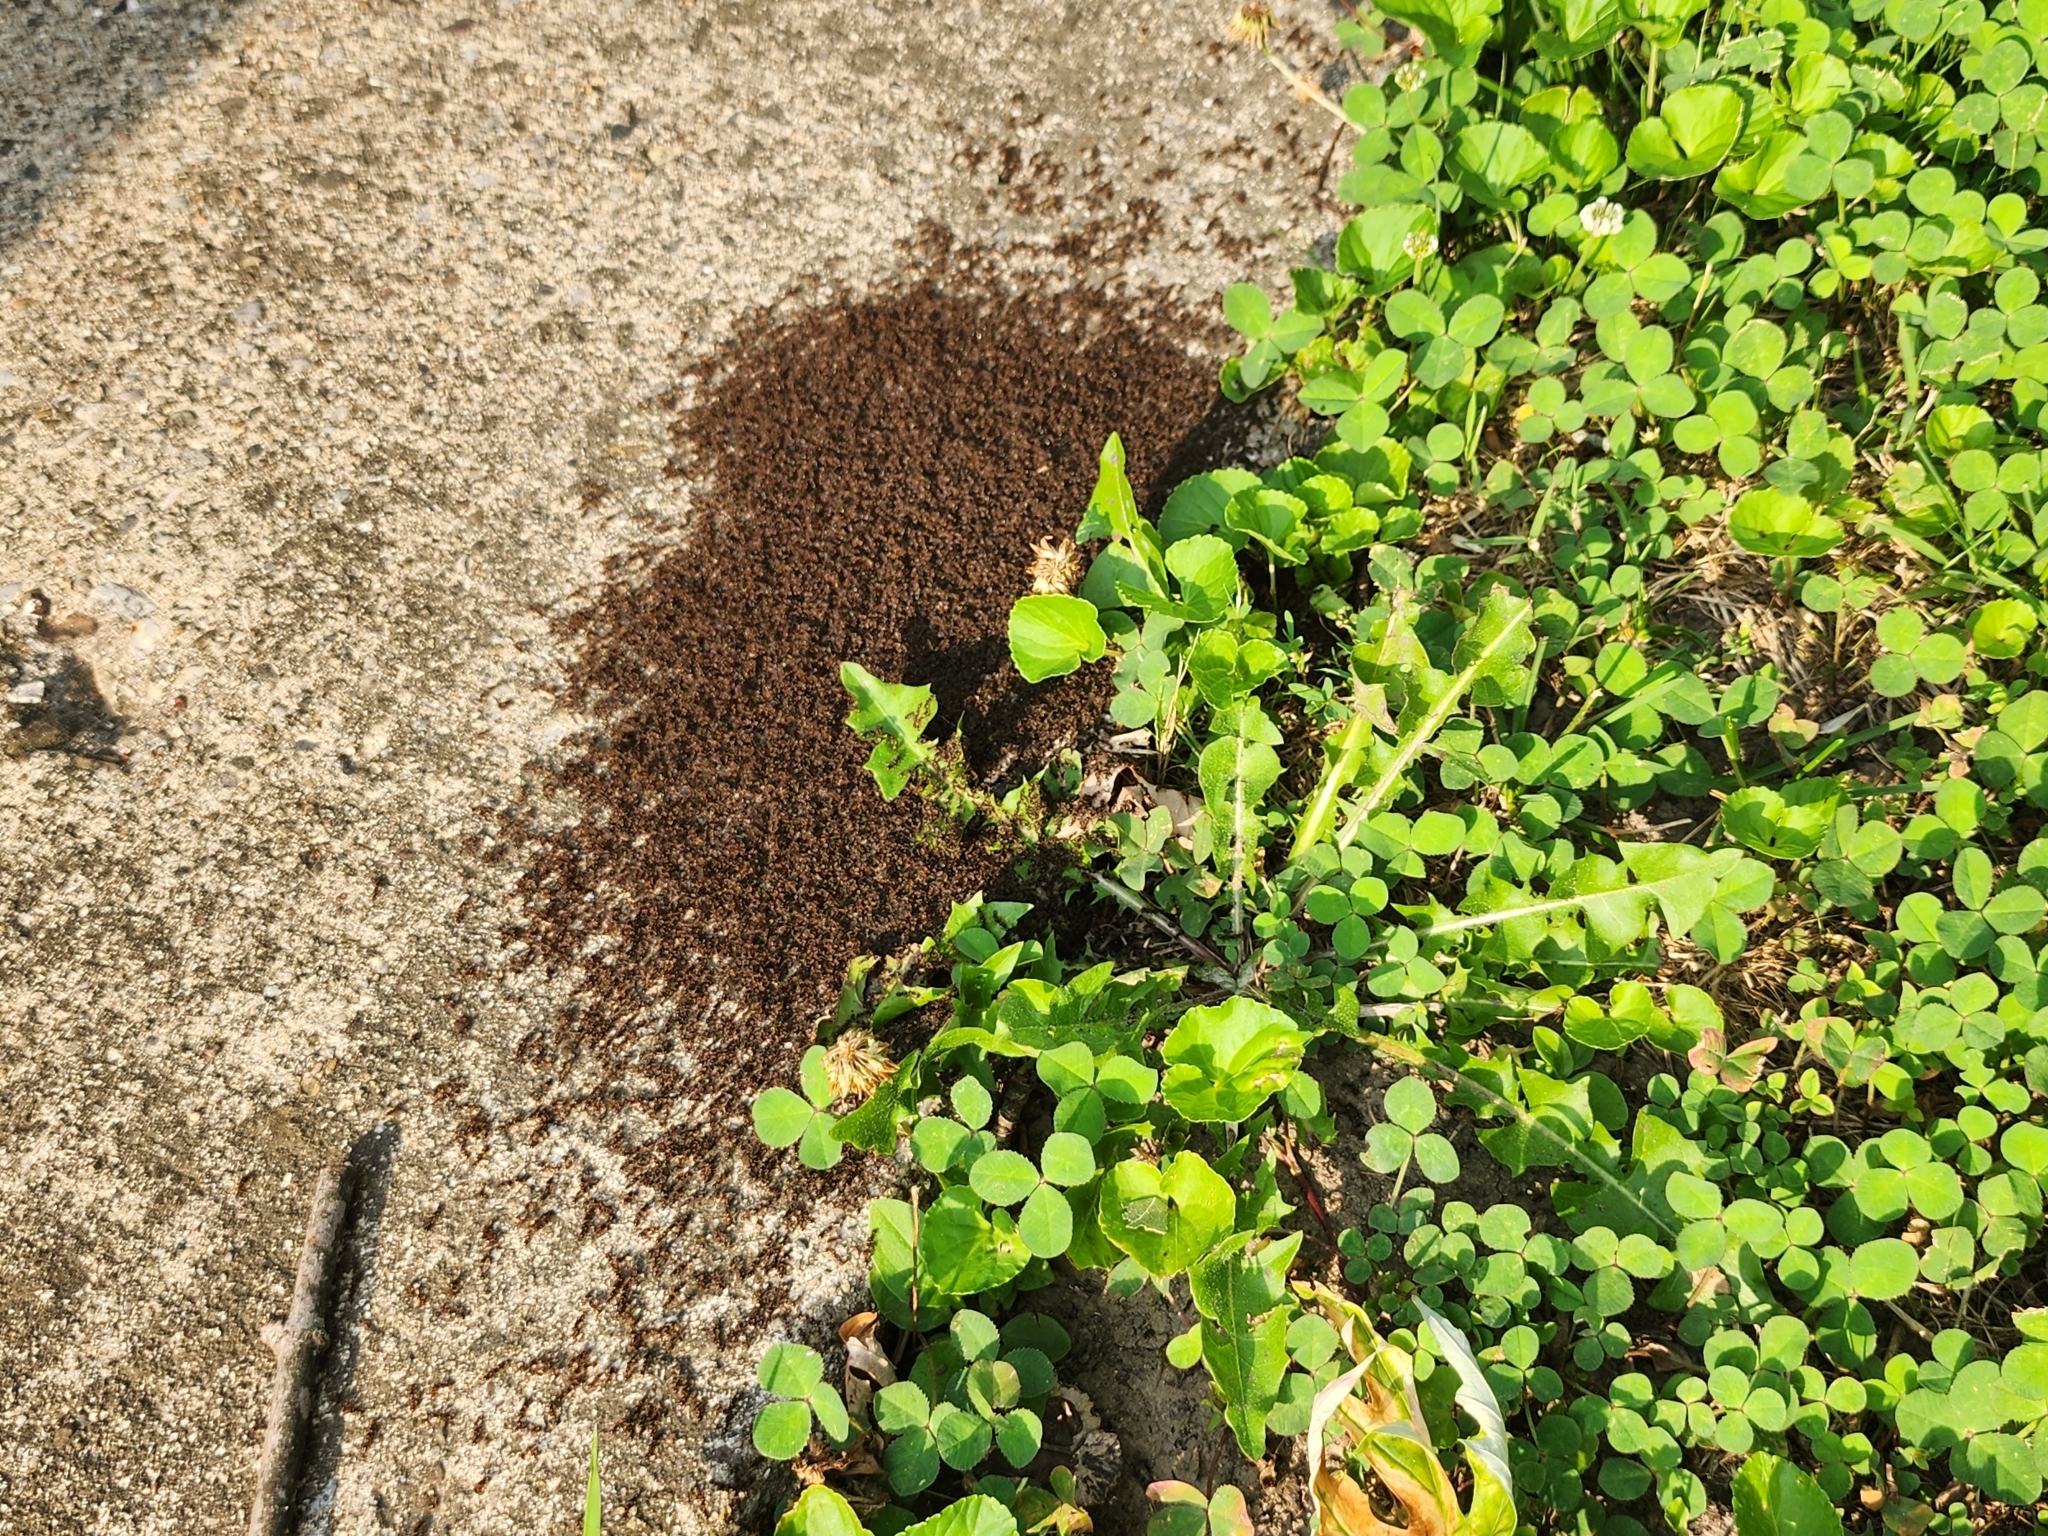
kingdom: Animalia
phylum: Arthropoda
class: Insecta
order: Hymenoptera
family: Formicidae
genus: Tetramorium
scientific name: Tetramorium immigrans
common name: Pavement ant
